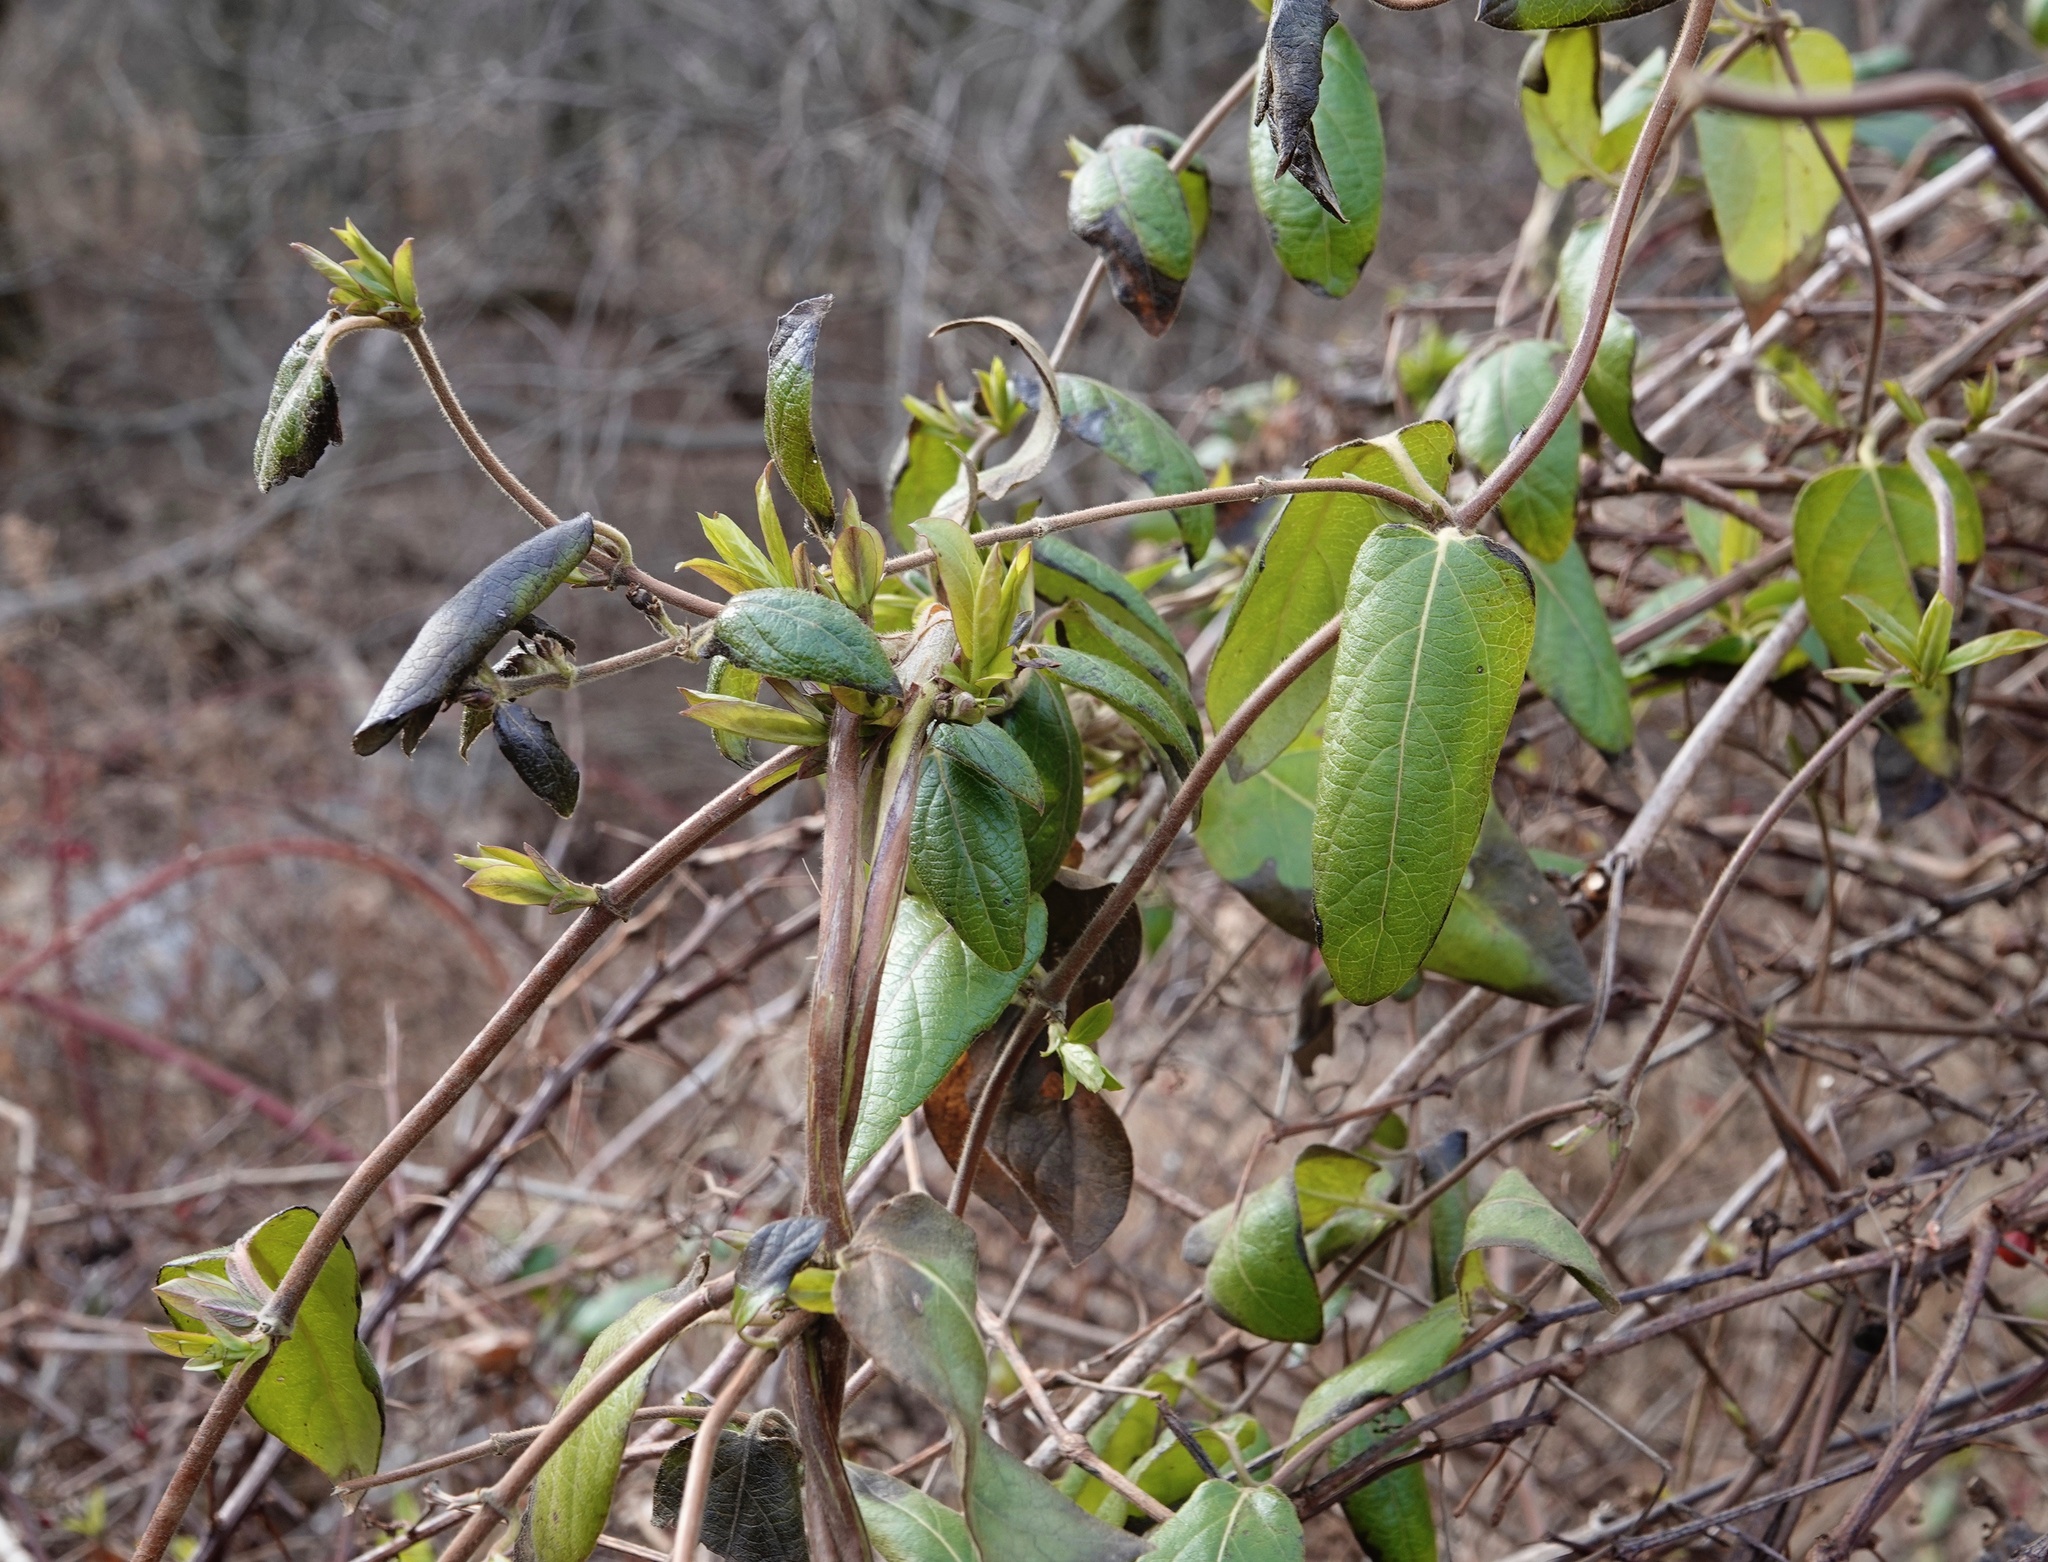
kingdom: Plantae
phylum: Tracheophyta
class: Magnoliopsida
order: Dipsacales
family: Caprifoliaceae
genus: Lonicera
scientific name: Lonicera japonica
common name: Japanese honeysuckle
